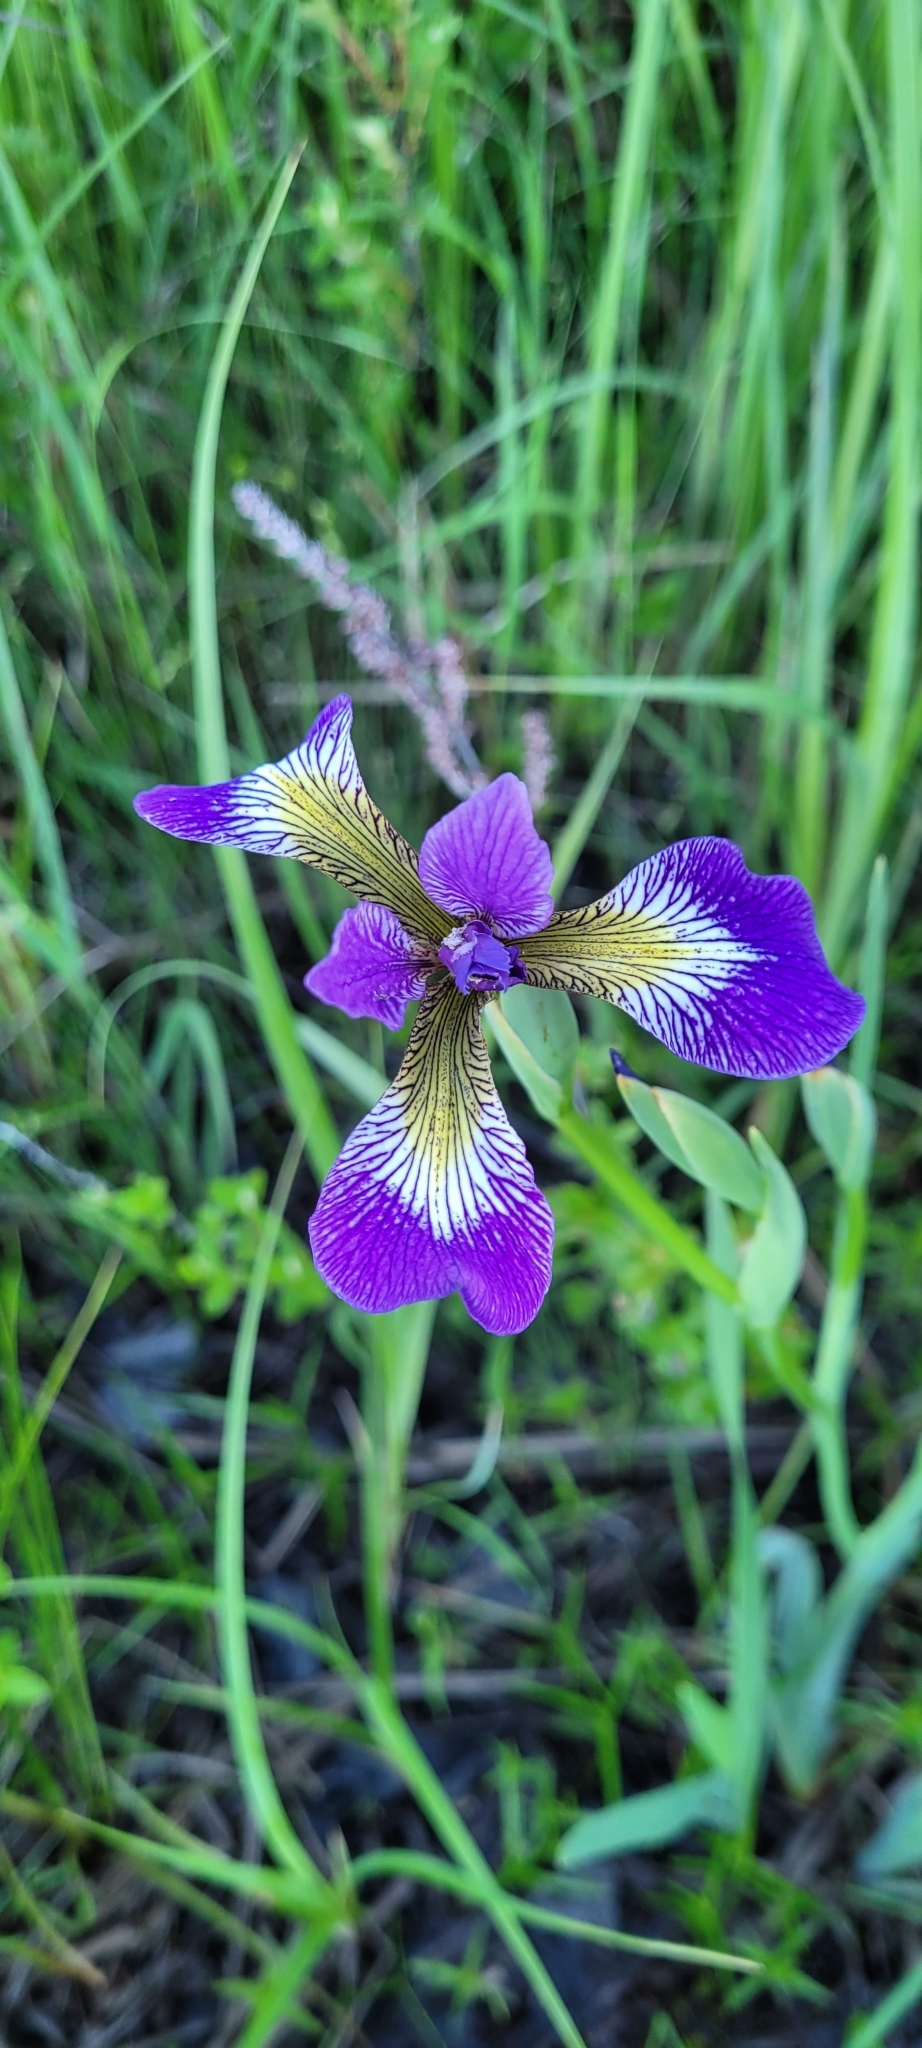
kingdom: Plantae
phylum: Tracheophyta
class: Liliopsida
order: Asparagales
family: Iridaceae
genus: Iris
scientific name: Iris versicolor
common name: Purple iris
